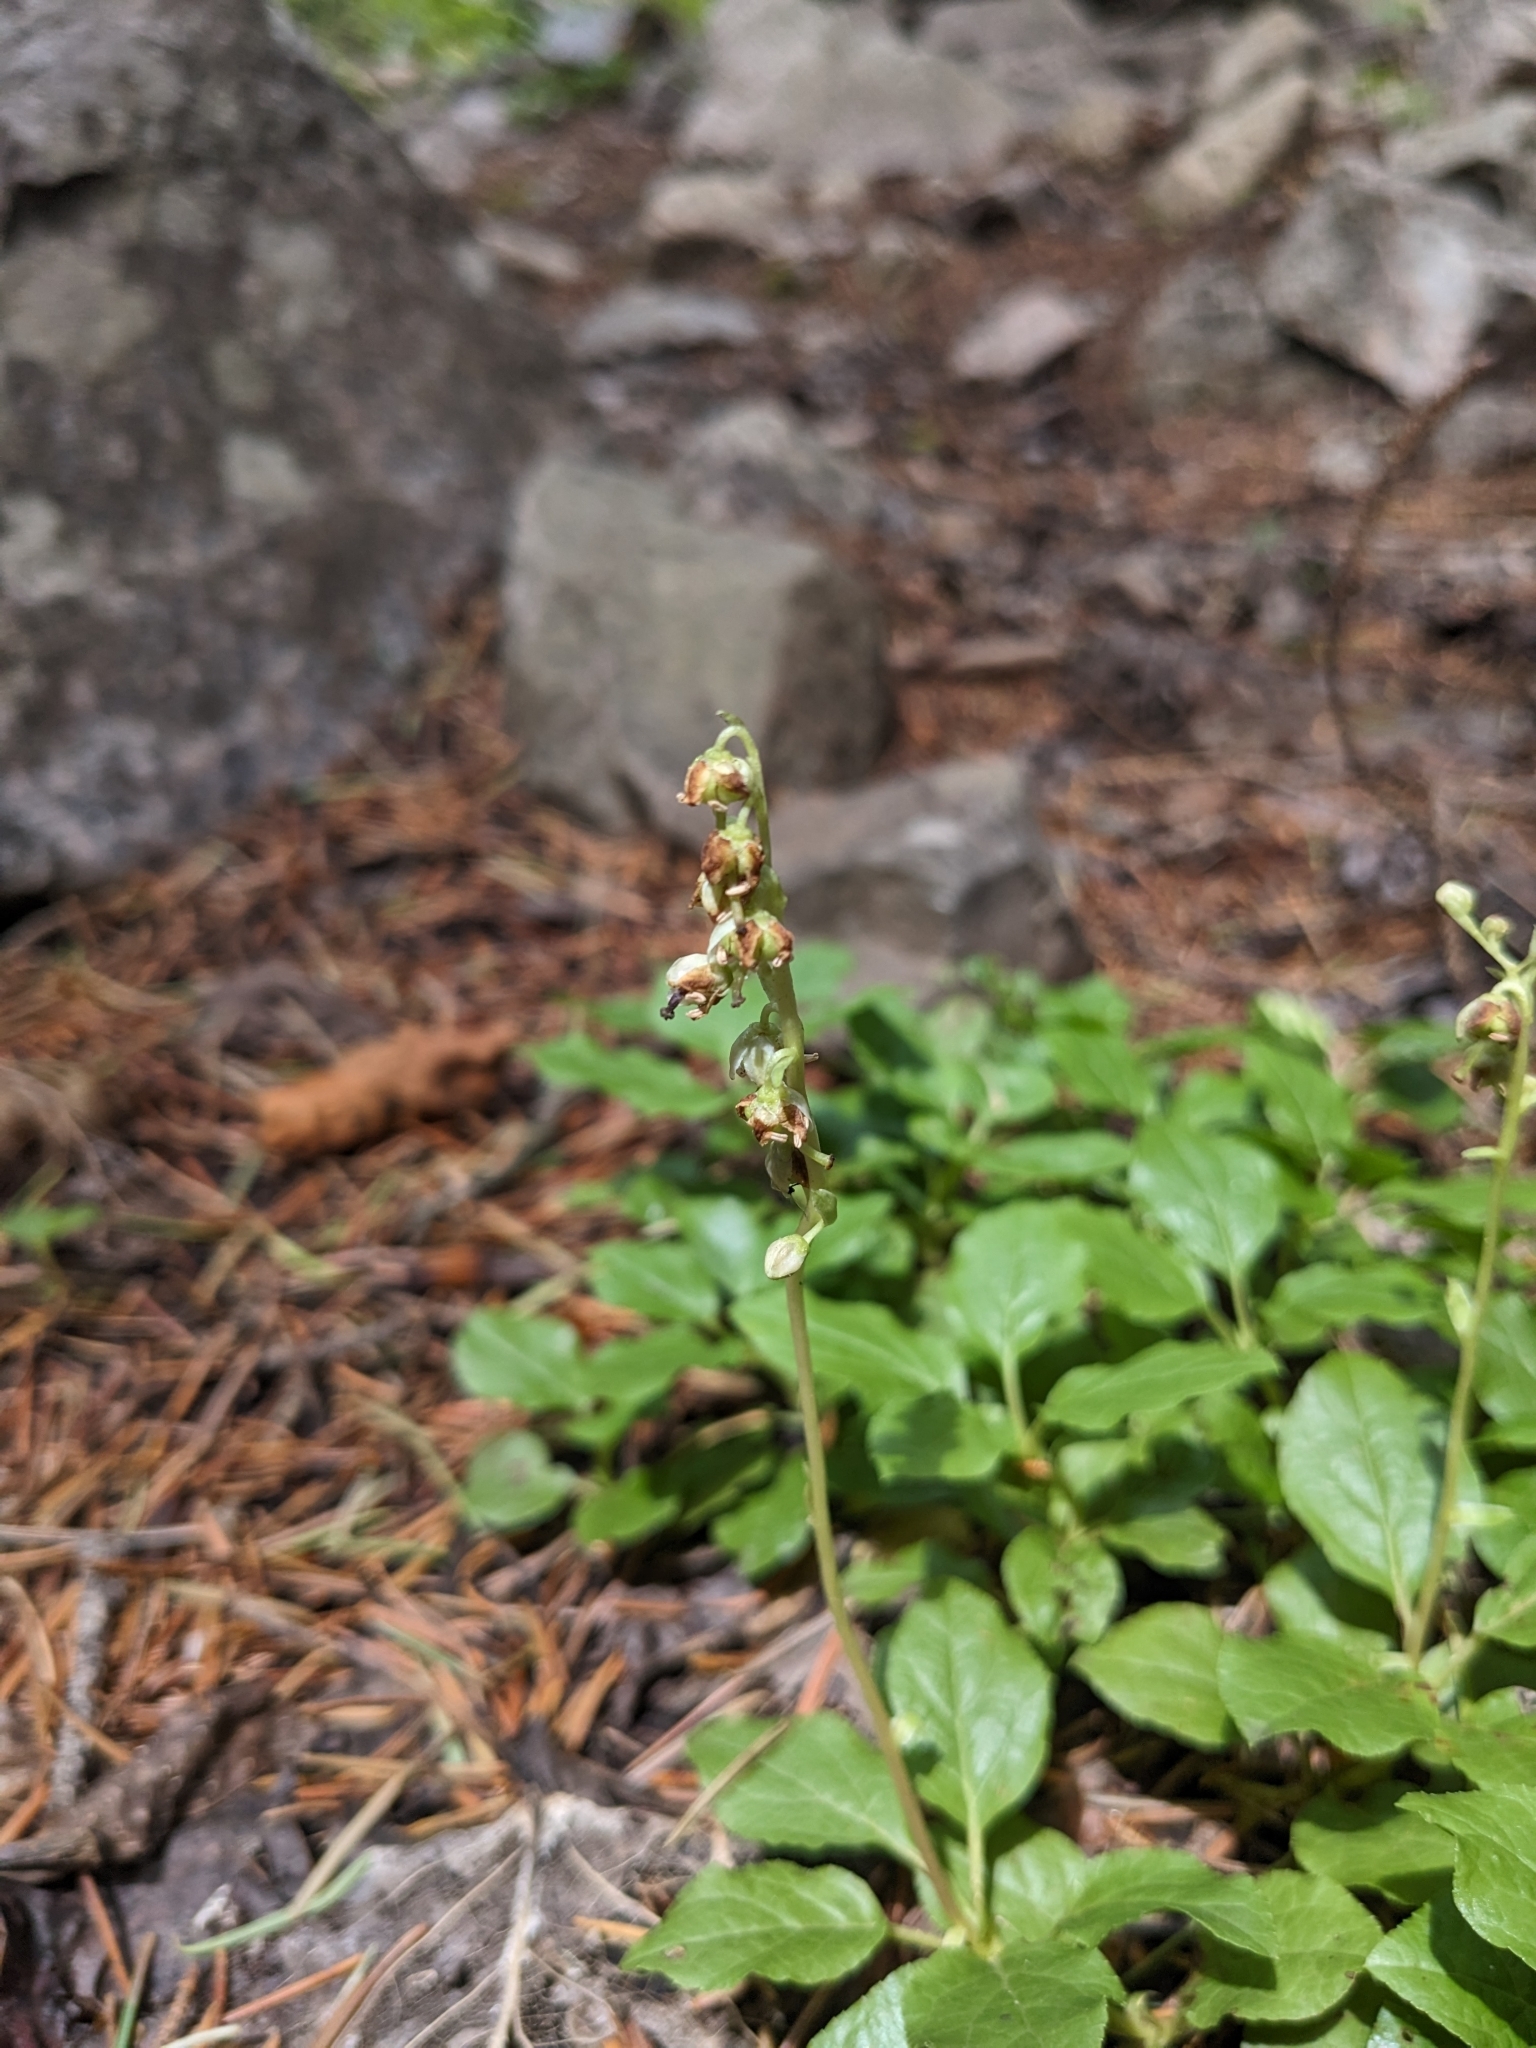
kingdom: Plantae
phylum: Tracheophyta
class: Magnoliopsida
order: Ericales
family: Ericaceae
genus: Orthilia
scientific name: Orthilia secunda
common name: One-sided orthilia
